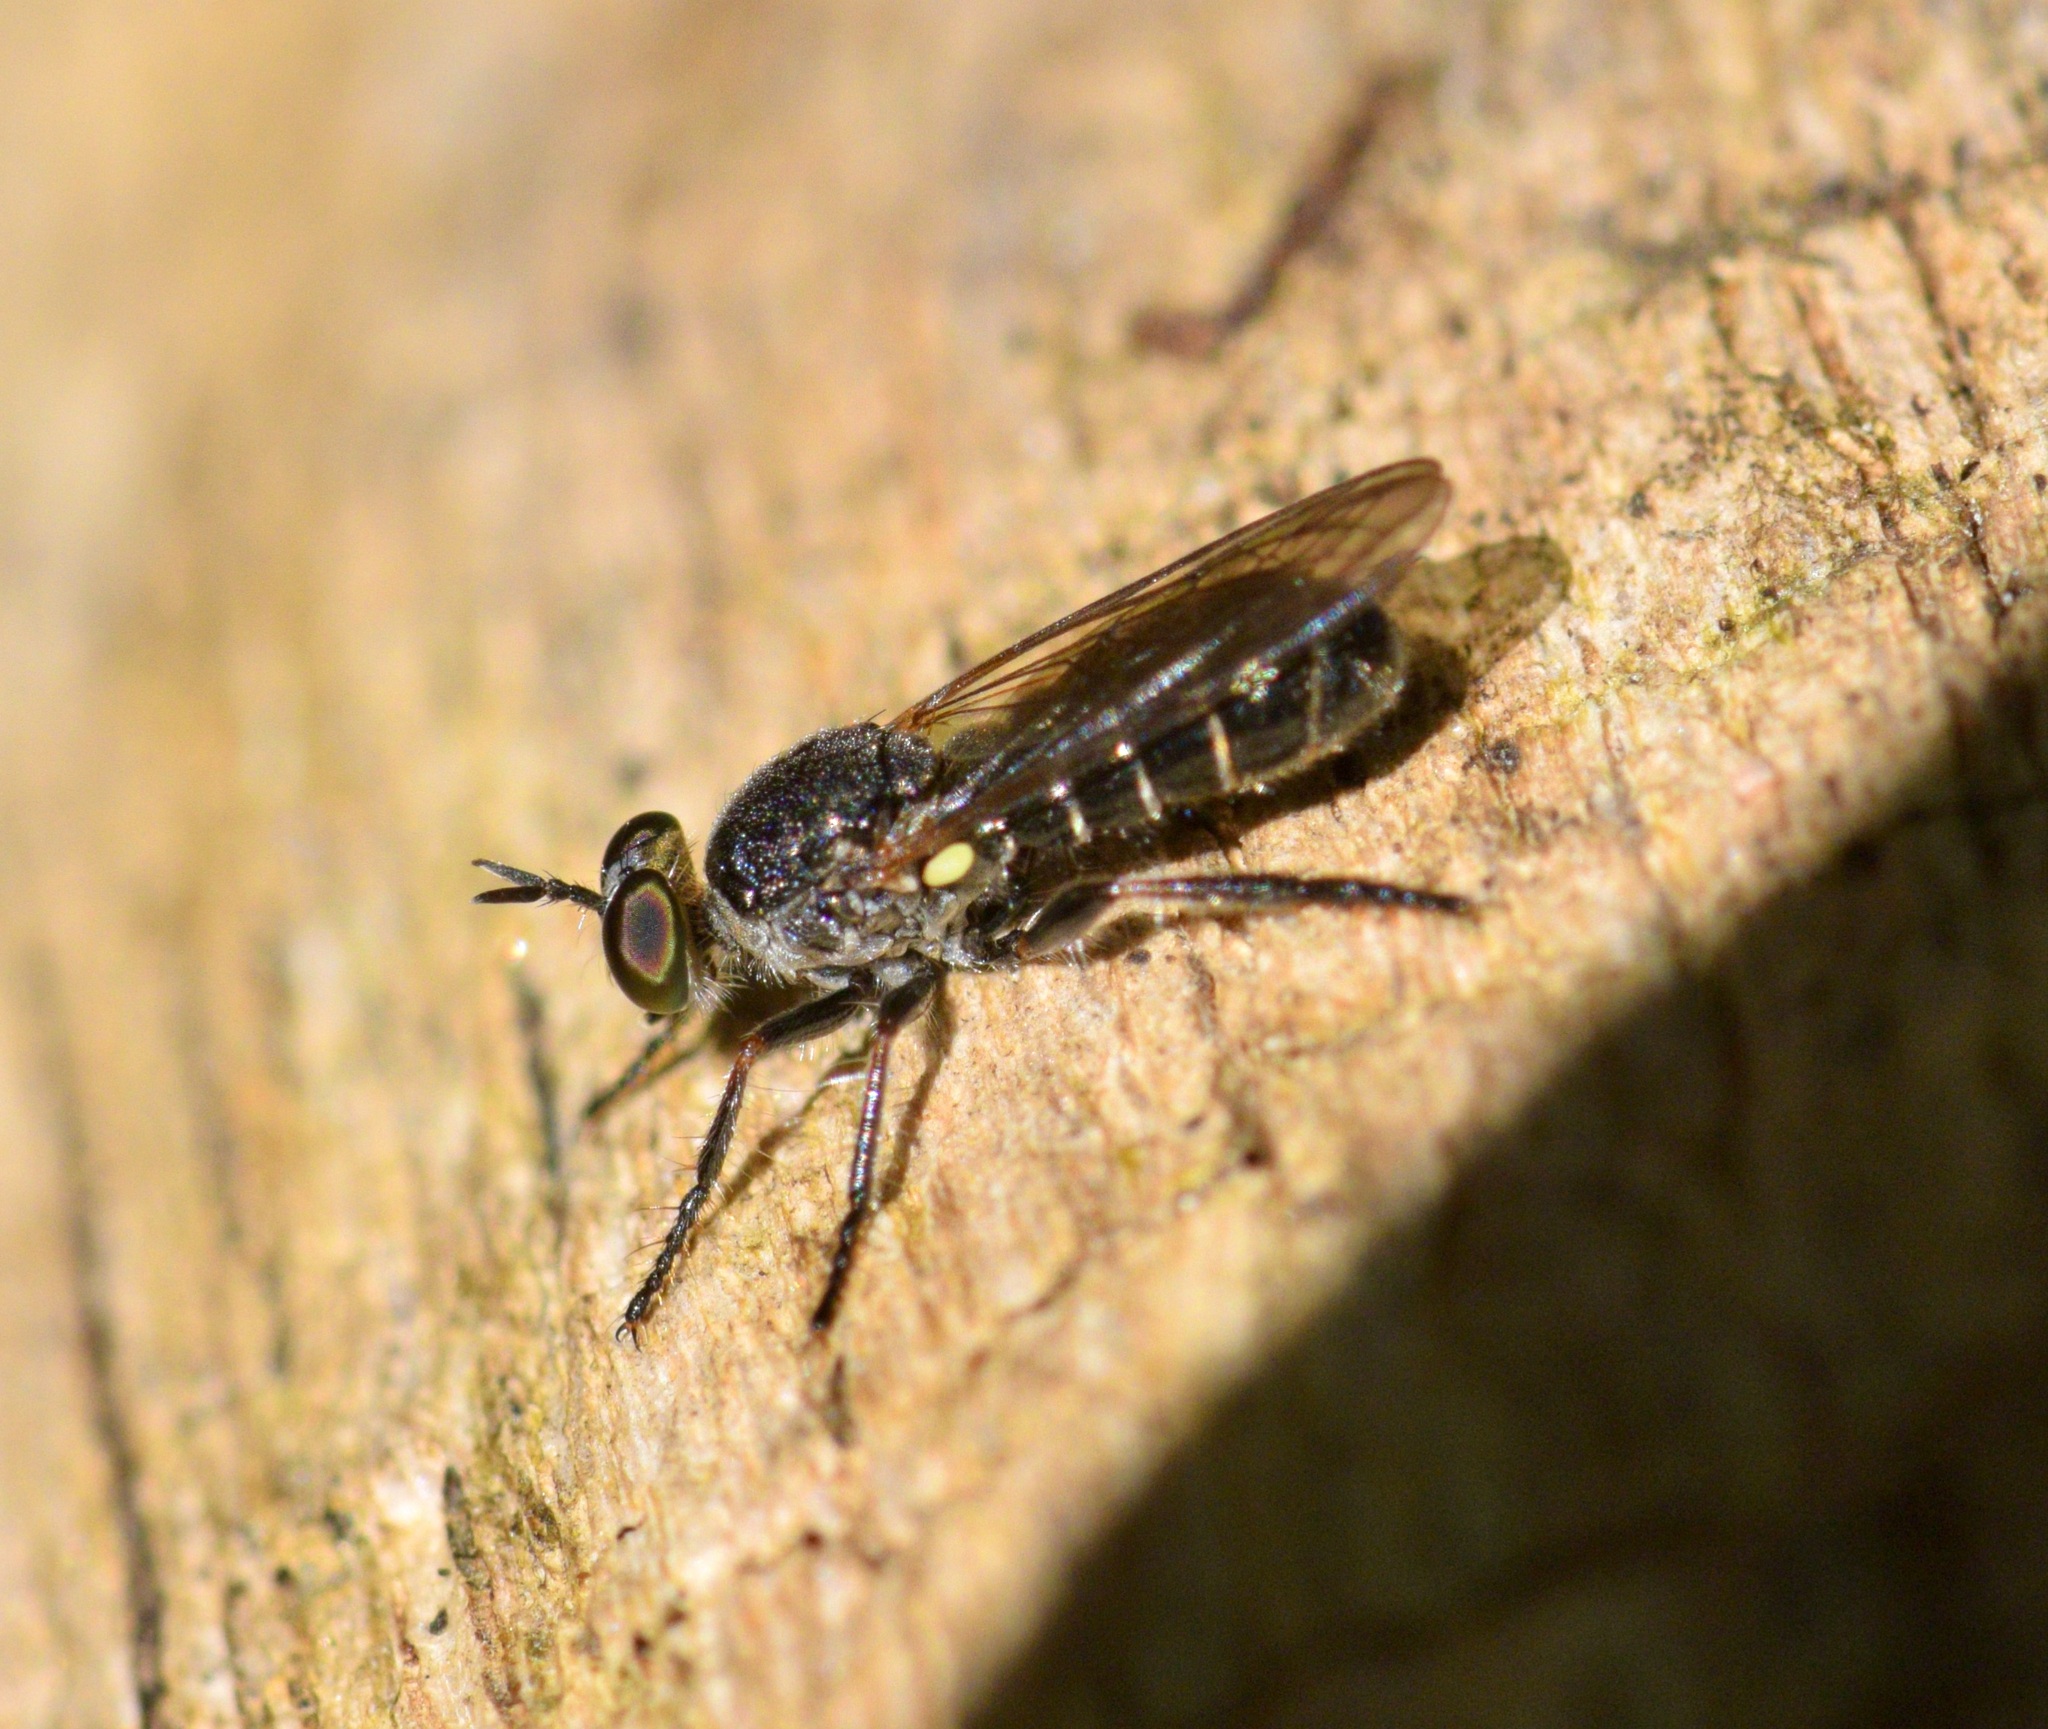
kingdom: Animalia
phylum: Arthropoda
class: Insecta
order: Diptera
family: Asilidae
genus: Atomosia
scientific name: Atomosia puella
